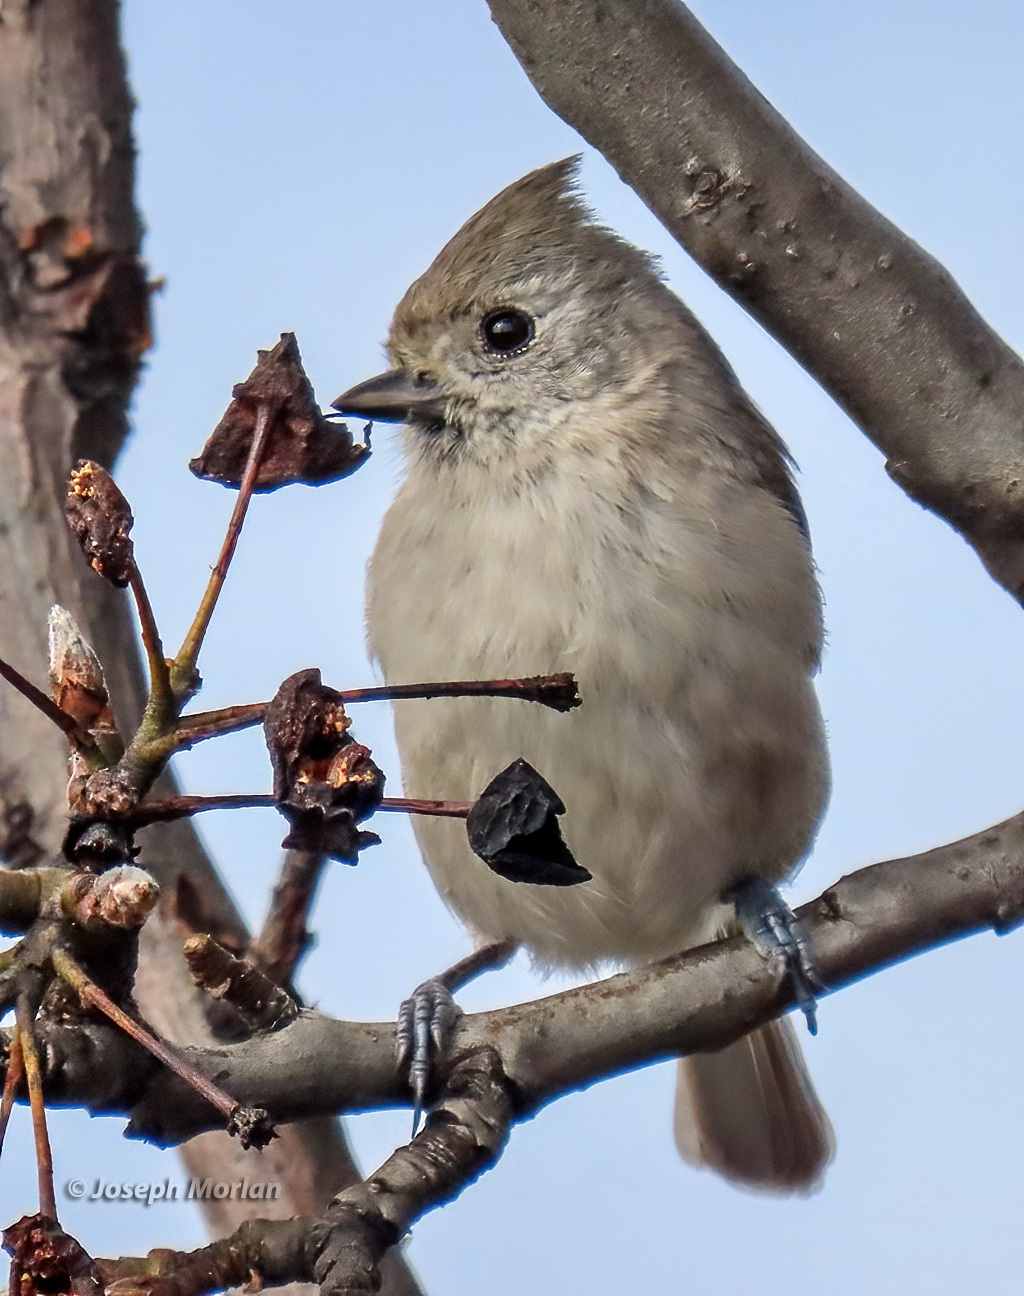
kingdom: Animalia
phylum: Chordata
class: Aves
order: Passeriformes
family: Paridae
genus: Baeolophus
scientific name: Baeolophus inornatus
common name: Oak titmouse
